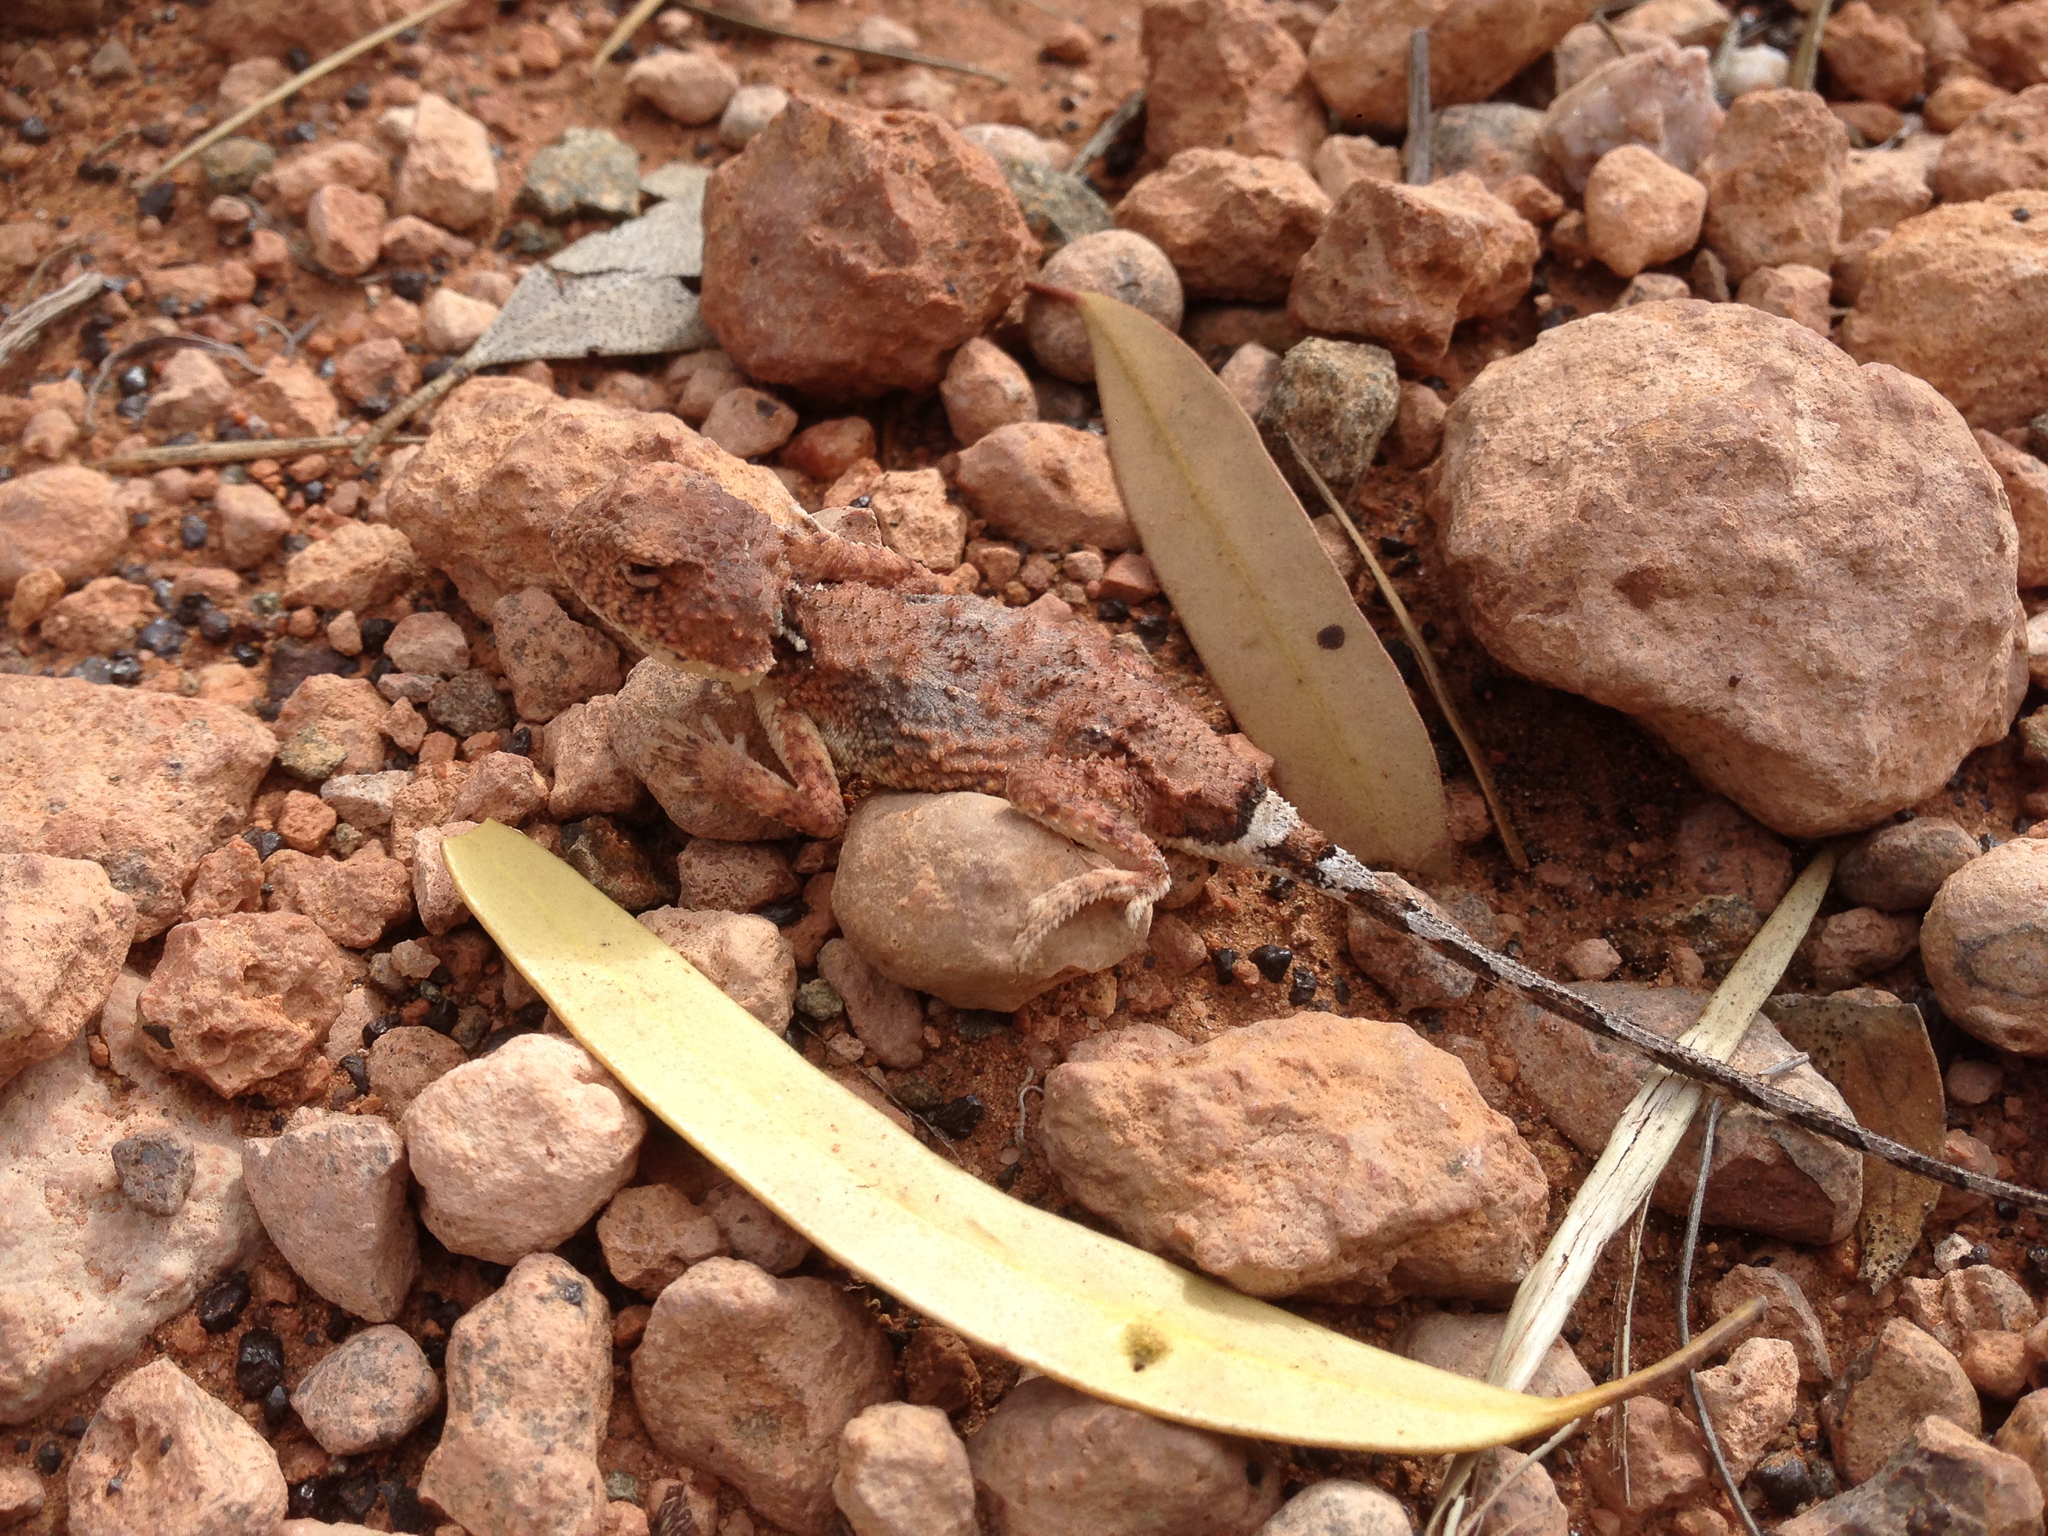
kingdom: Animalia
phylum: Chordata
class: Squamata
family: Agamidae
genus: Tympanocryptis
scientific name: Tympanocryptis pseudopsephos
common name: Goldfields pebble-mimic dragon
